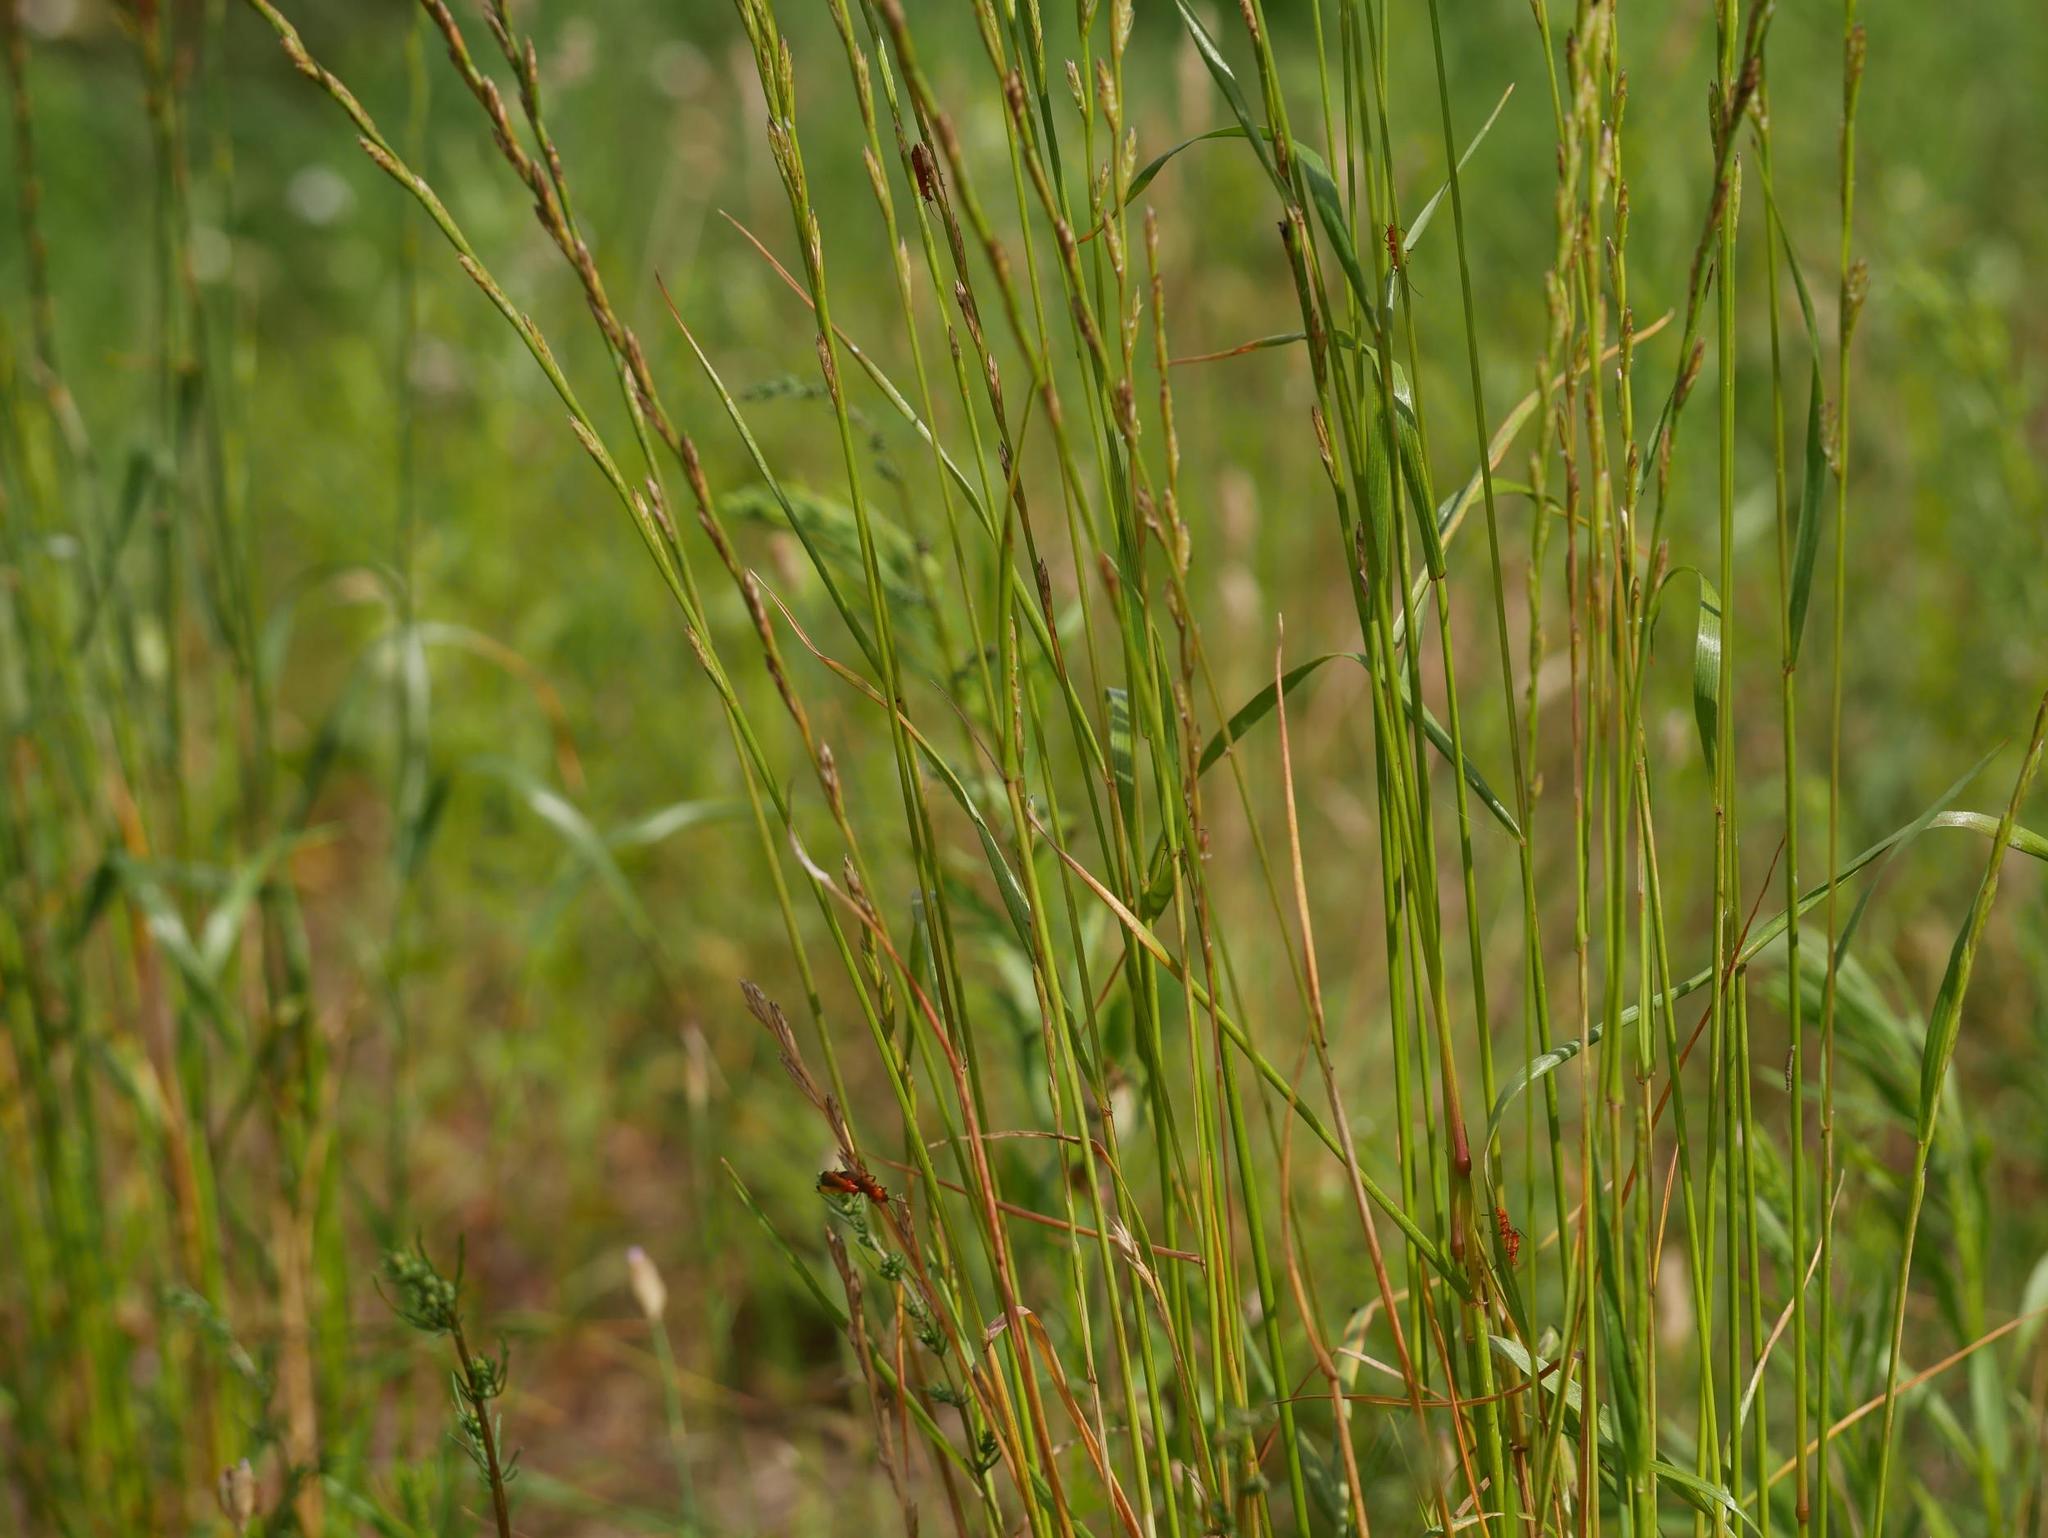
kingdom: Plantae
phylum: Tracheophyta
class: Liliopsida
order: Poales
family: Poaceae
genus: Lolium
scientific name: Lolium perenne
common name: Perennial ryegrass
